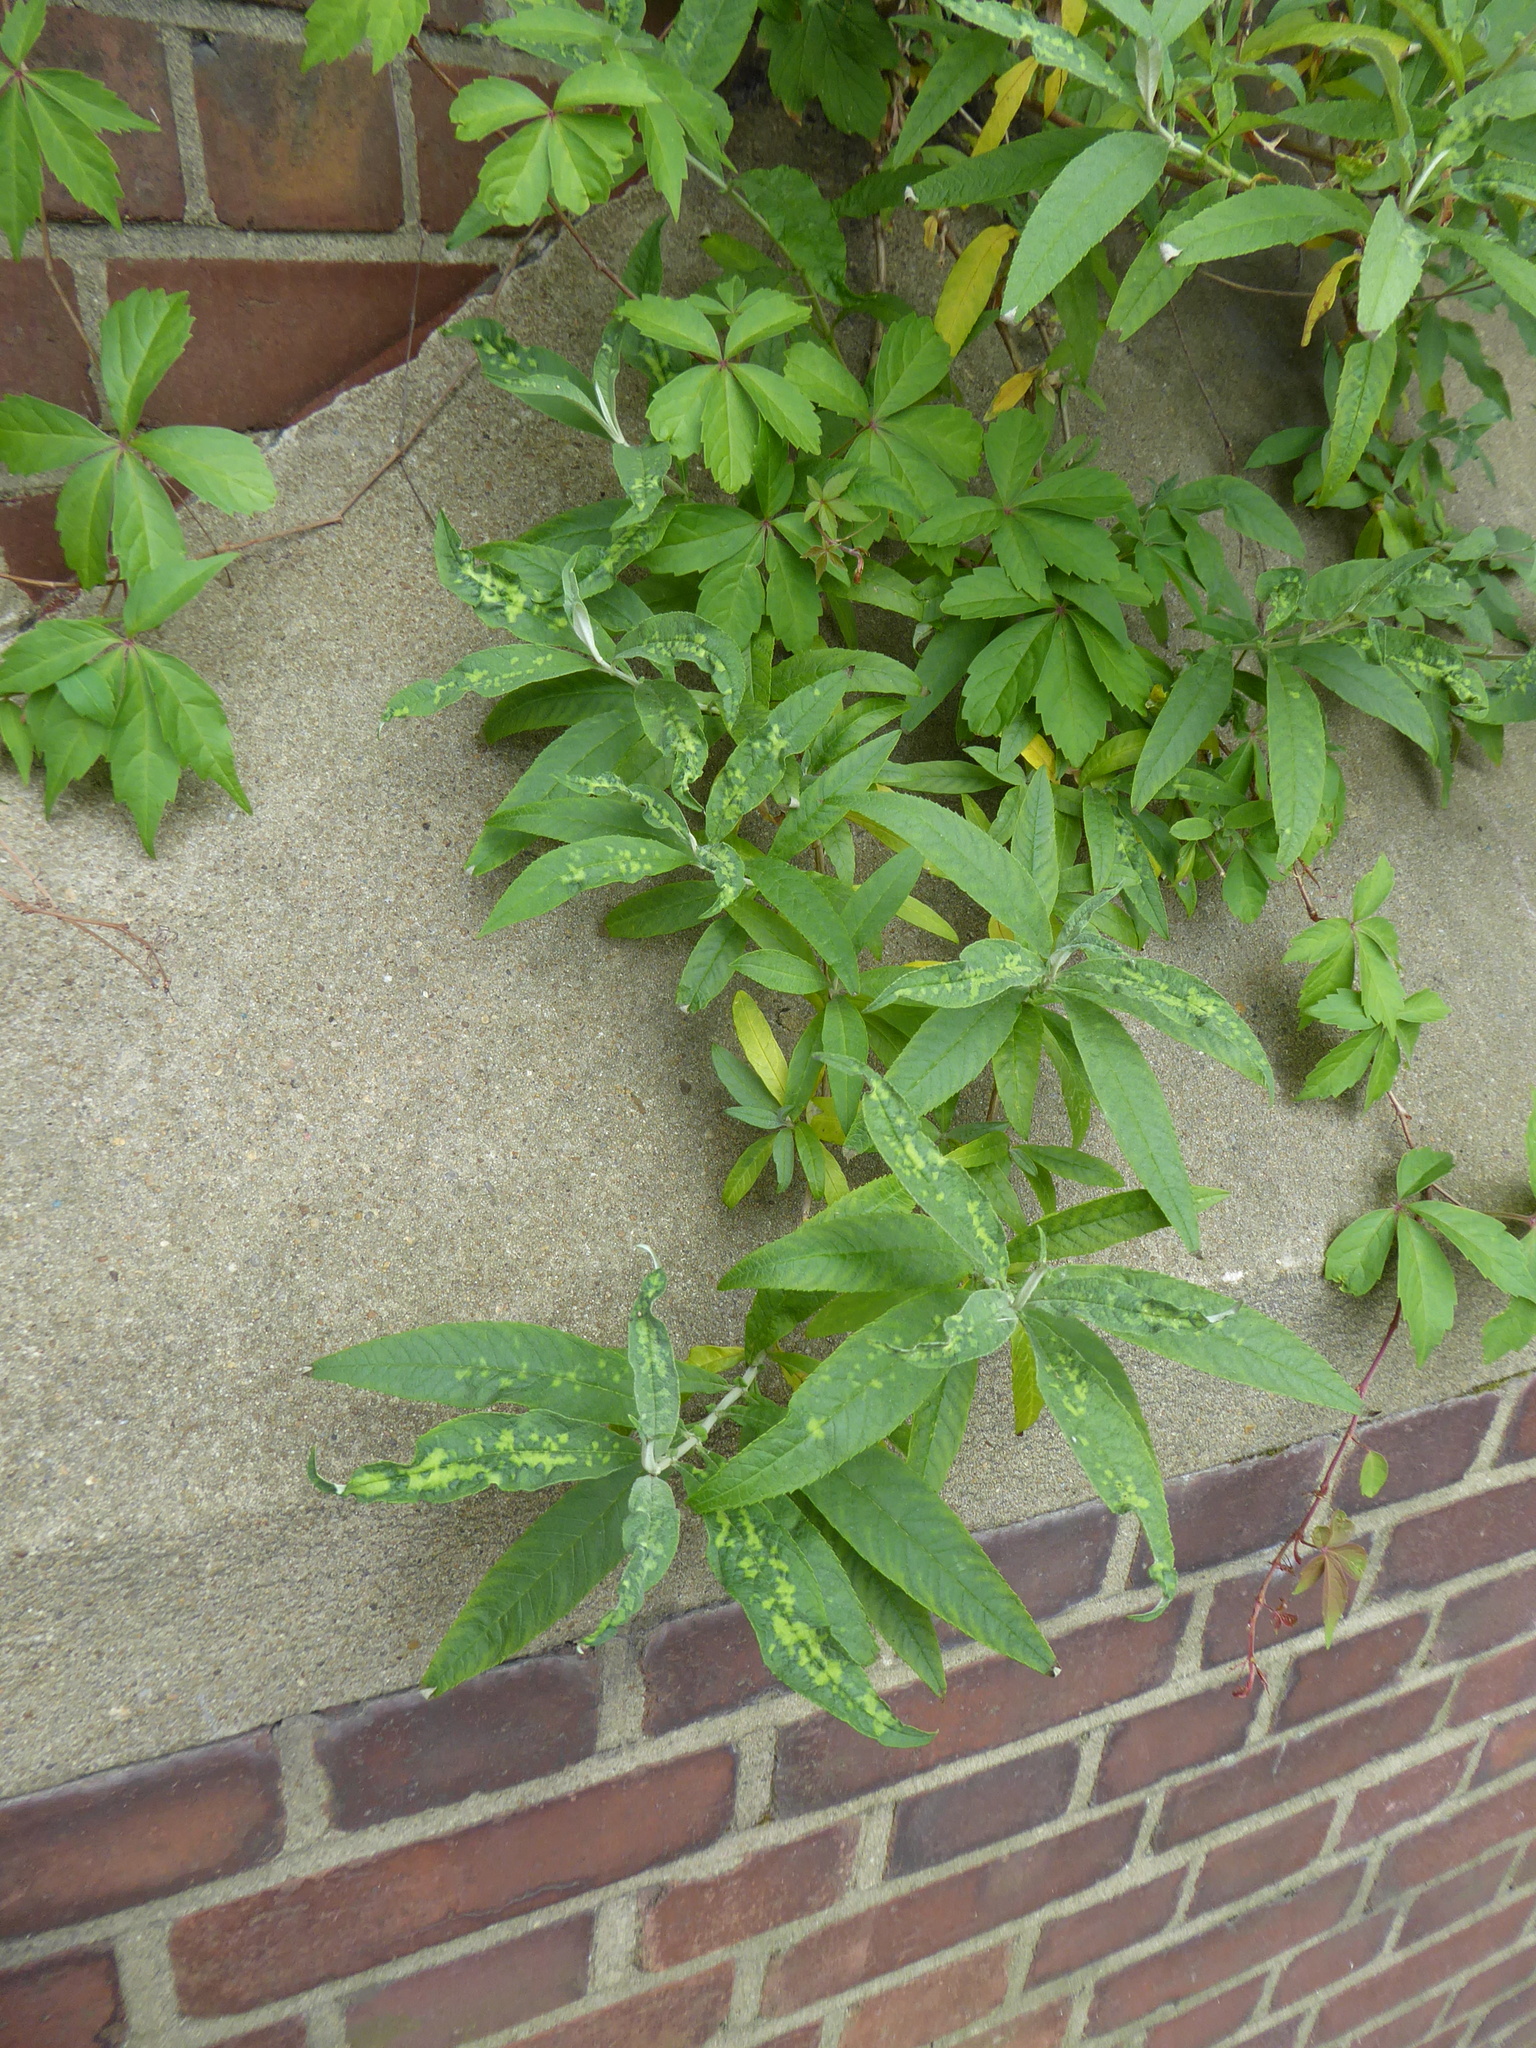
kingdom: Plantae
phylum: Tracheophyta
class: Magnoliopsida
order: Lamiales
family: Scrophulariaceae
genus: Buddleja
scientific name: Buddleja davidii
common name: Butterfly-bush
